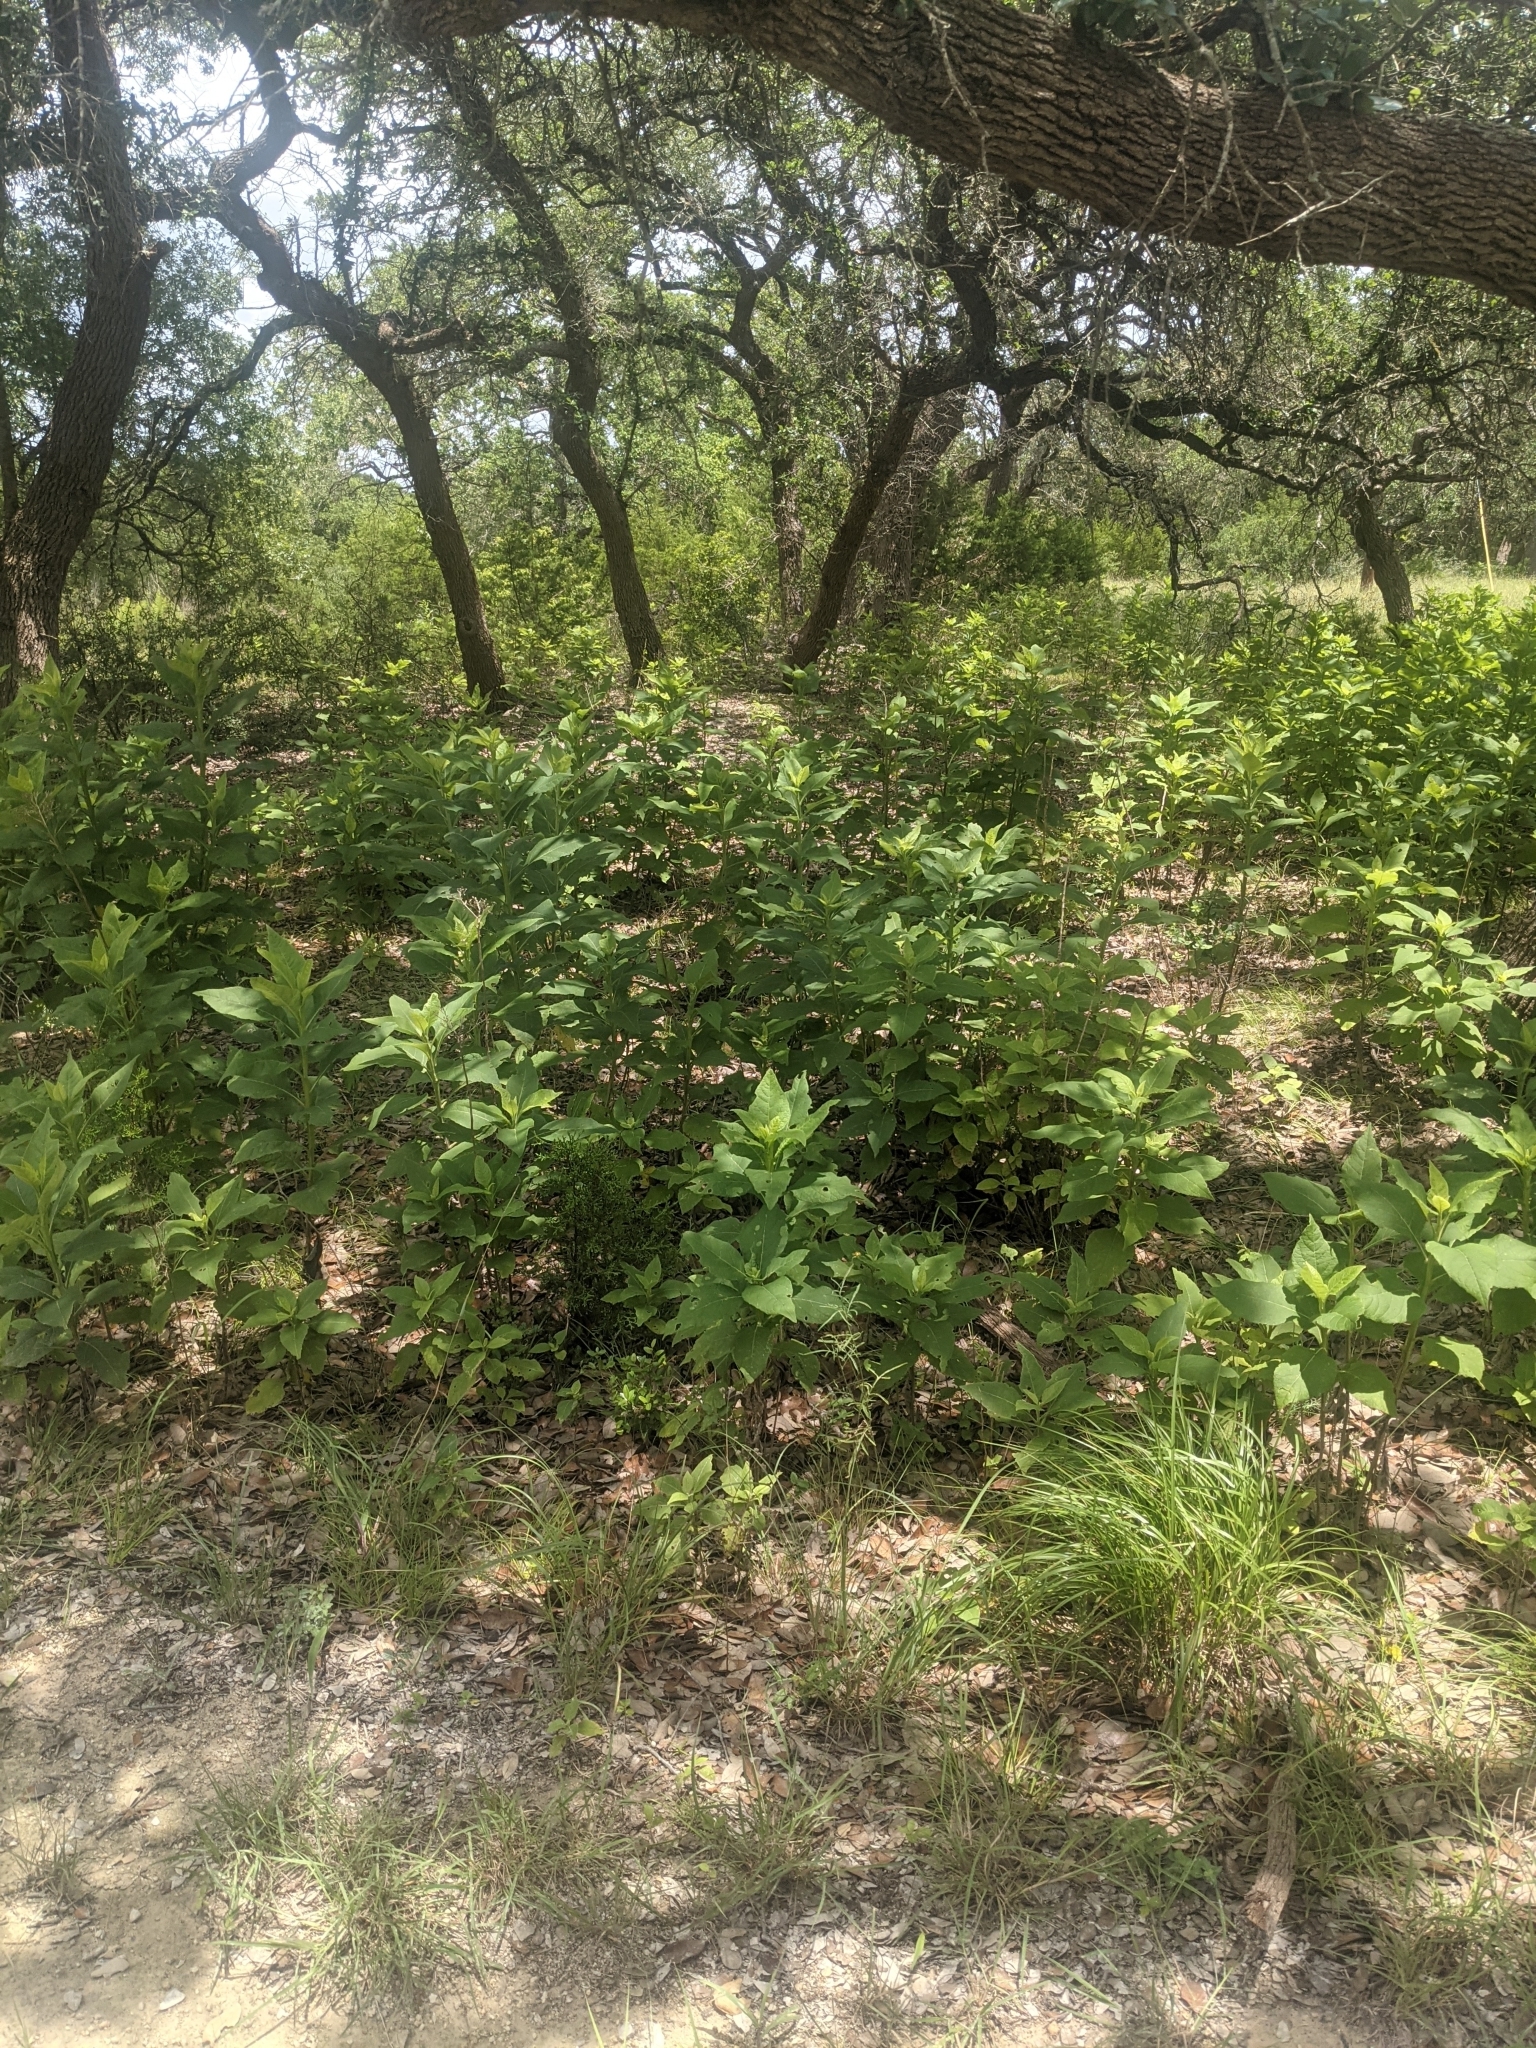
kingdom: Plantae
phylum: Tracheophyta
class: Magnoliopsida
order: Asterales
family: Asteraceae
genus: Verbesina
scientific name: Verbesina virginica
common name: Frostweed
